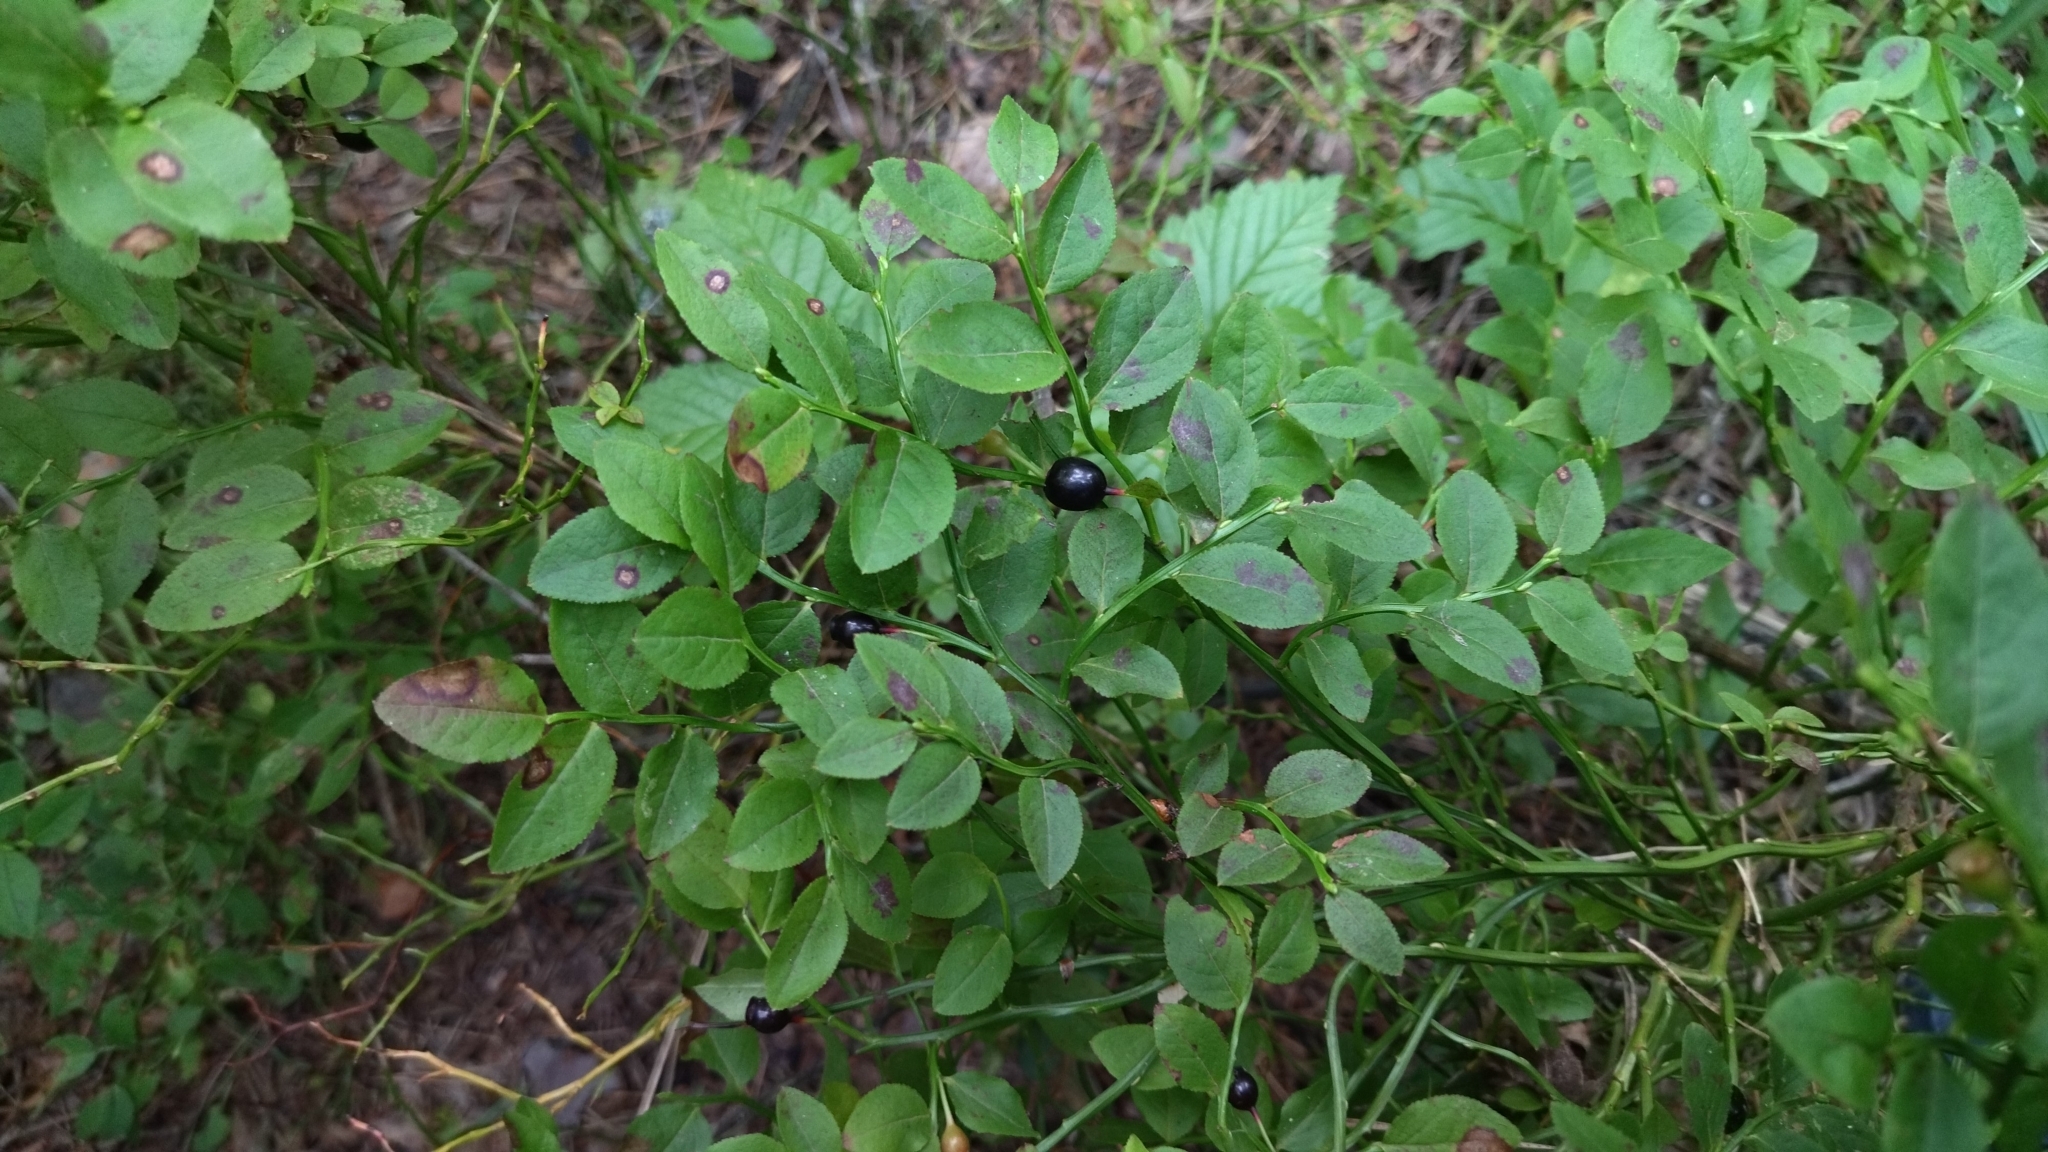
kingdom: Plantae
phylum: Tracheophyta
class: Magnoliopsida
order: Ericales
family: Ericaceae
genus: Vaccinium
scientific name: Vaccinium myrtillus
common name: Bilberry
